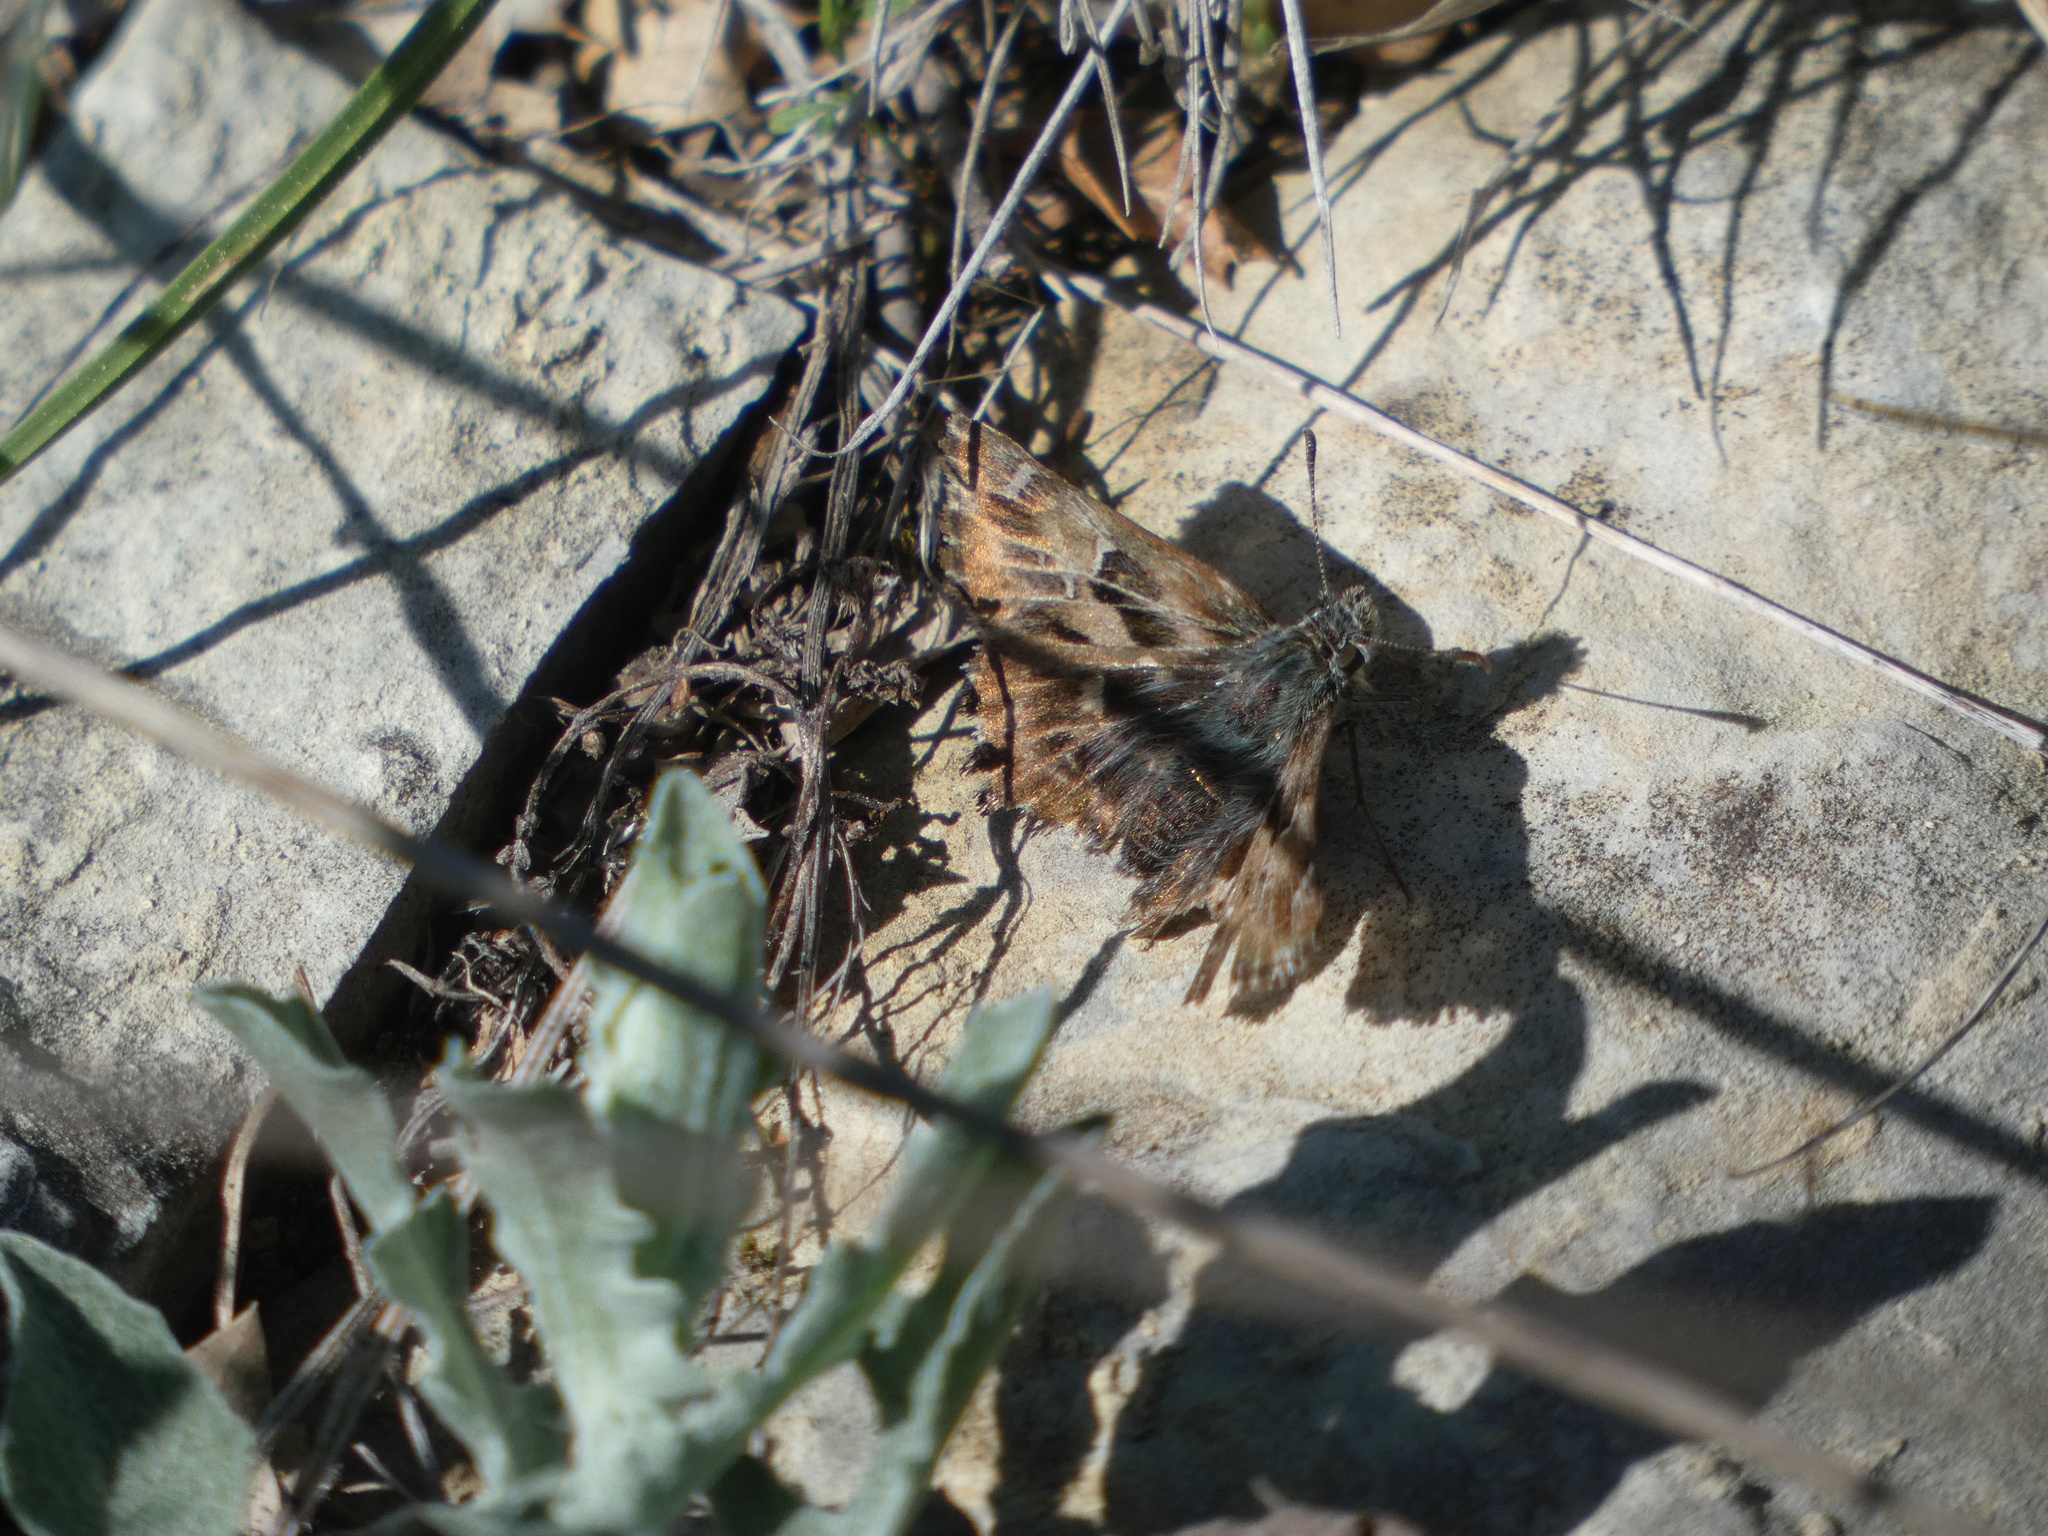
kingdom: Animalia
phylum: Arthropoda
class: Insecta
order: Lepidoptera
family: Hesperiidae
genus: Carcharodus
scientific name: Carcharodus alceae
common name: Mallow skipper
